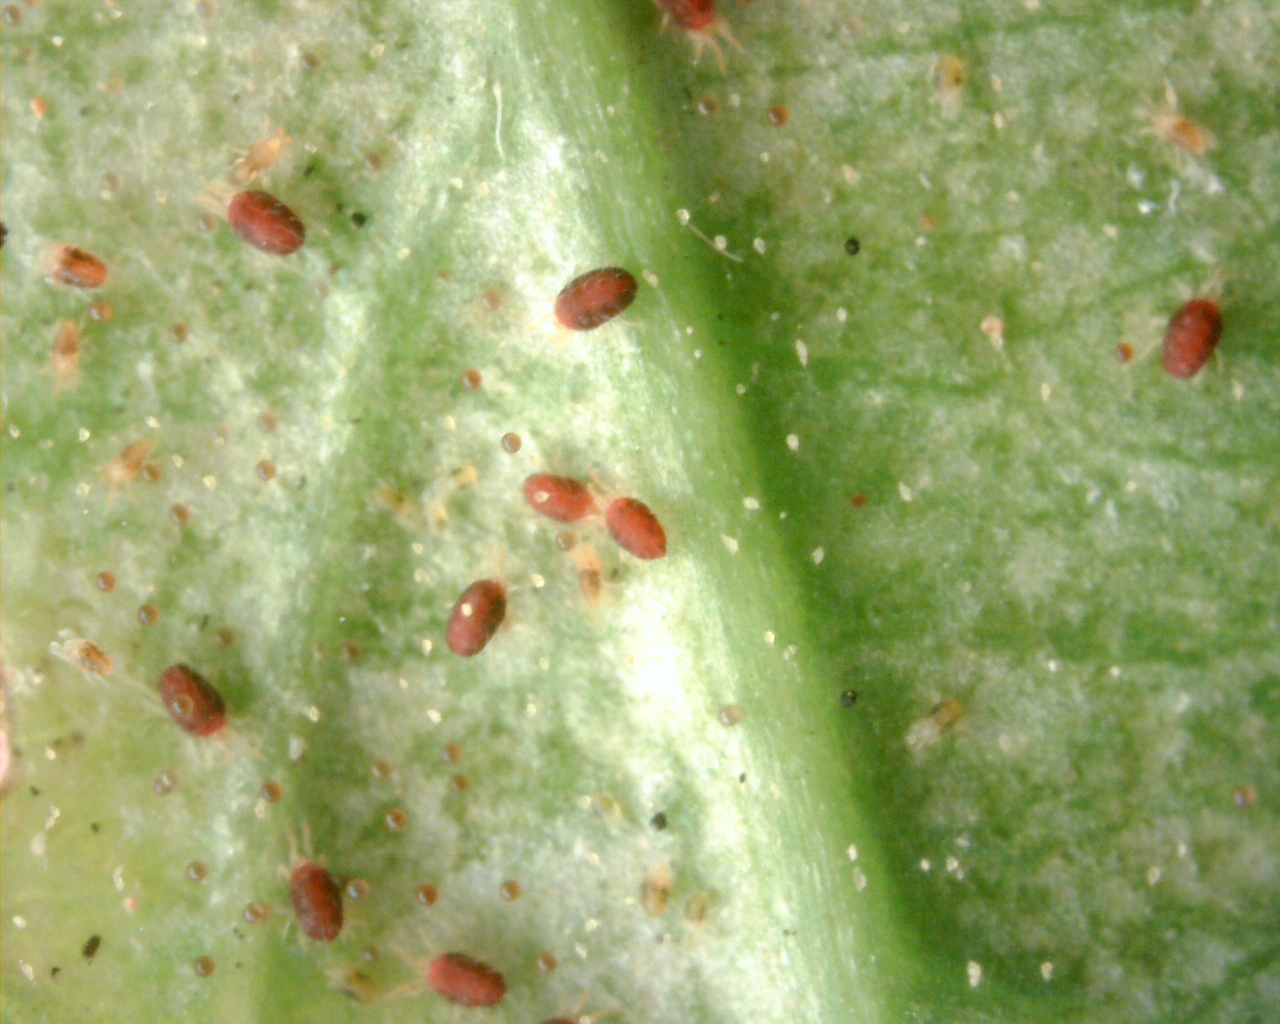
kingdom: Animalia
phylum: Arthropoda
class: Arachnida
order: Trombidiformes
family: Tetranychidae
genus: Tetranychus
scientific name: Tetranychus urticae
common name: Carmine spider mite
